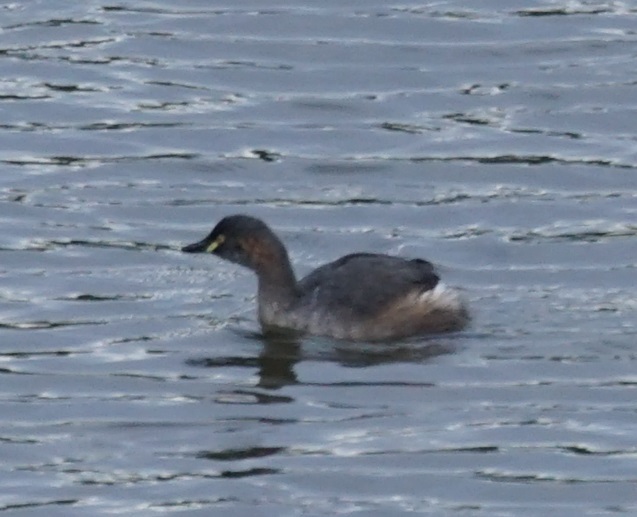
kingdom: Animalia
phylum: Chordata
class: Aves
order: Podicipediformes
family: Podicipedidae
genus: Tachybaptus
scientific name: Tachybaptus novaehollandiae
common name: Australasian grebe
